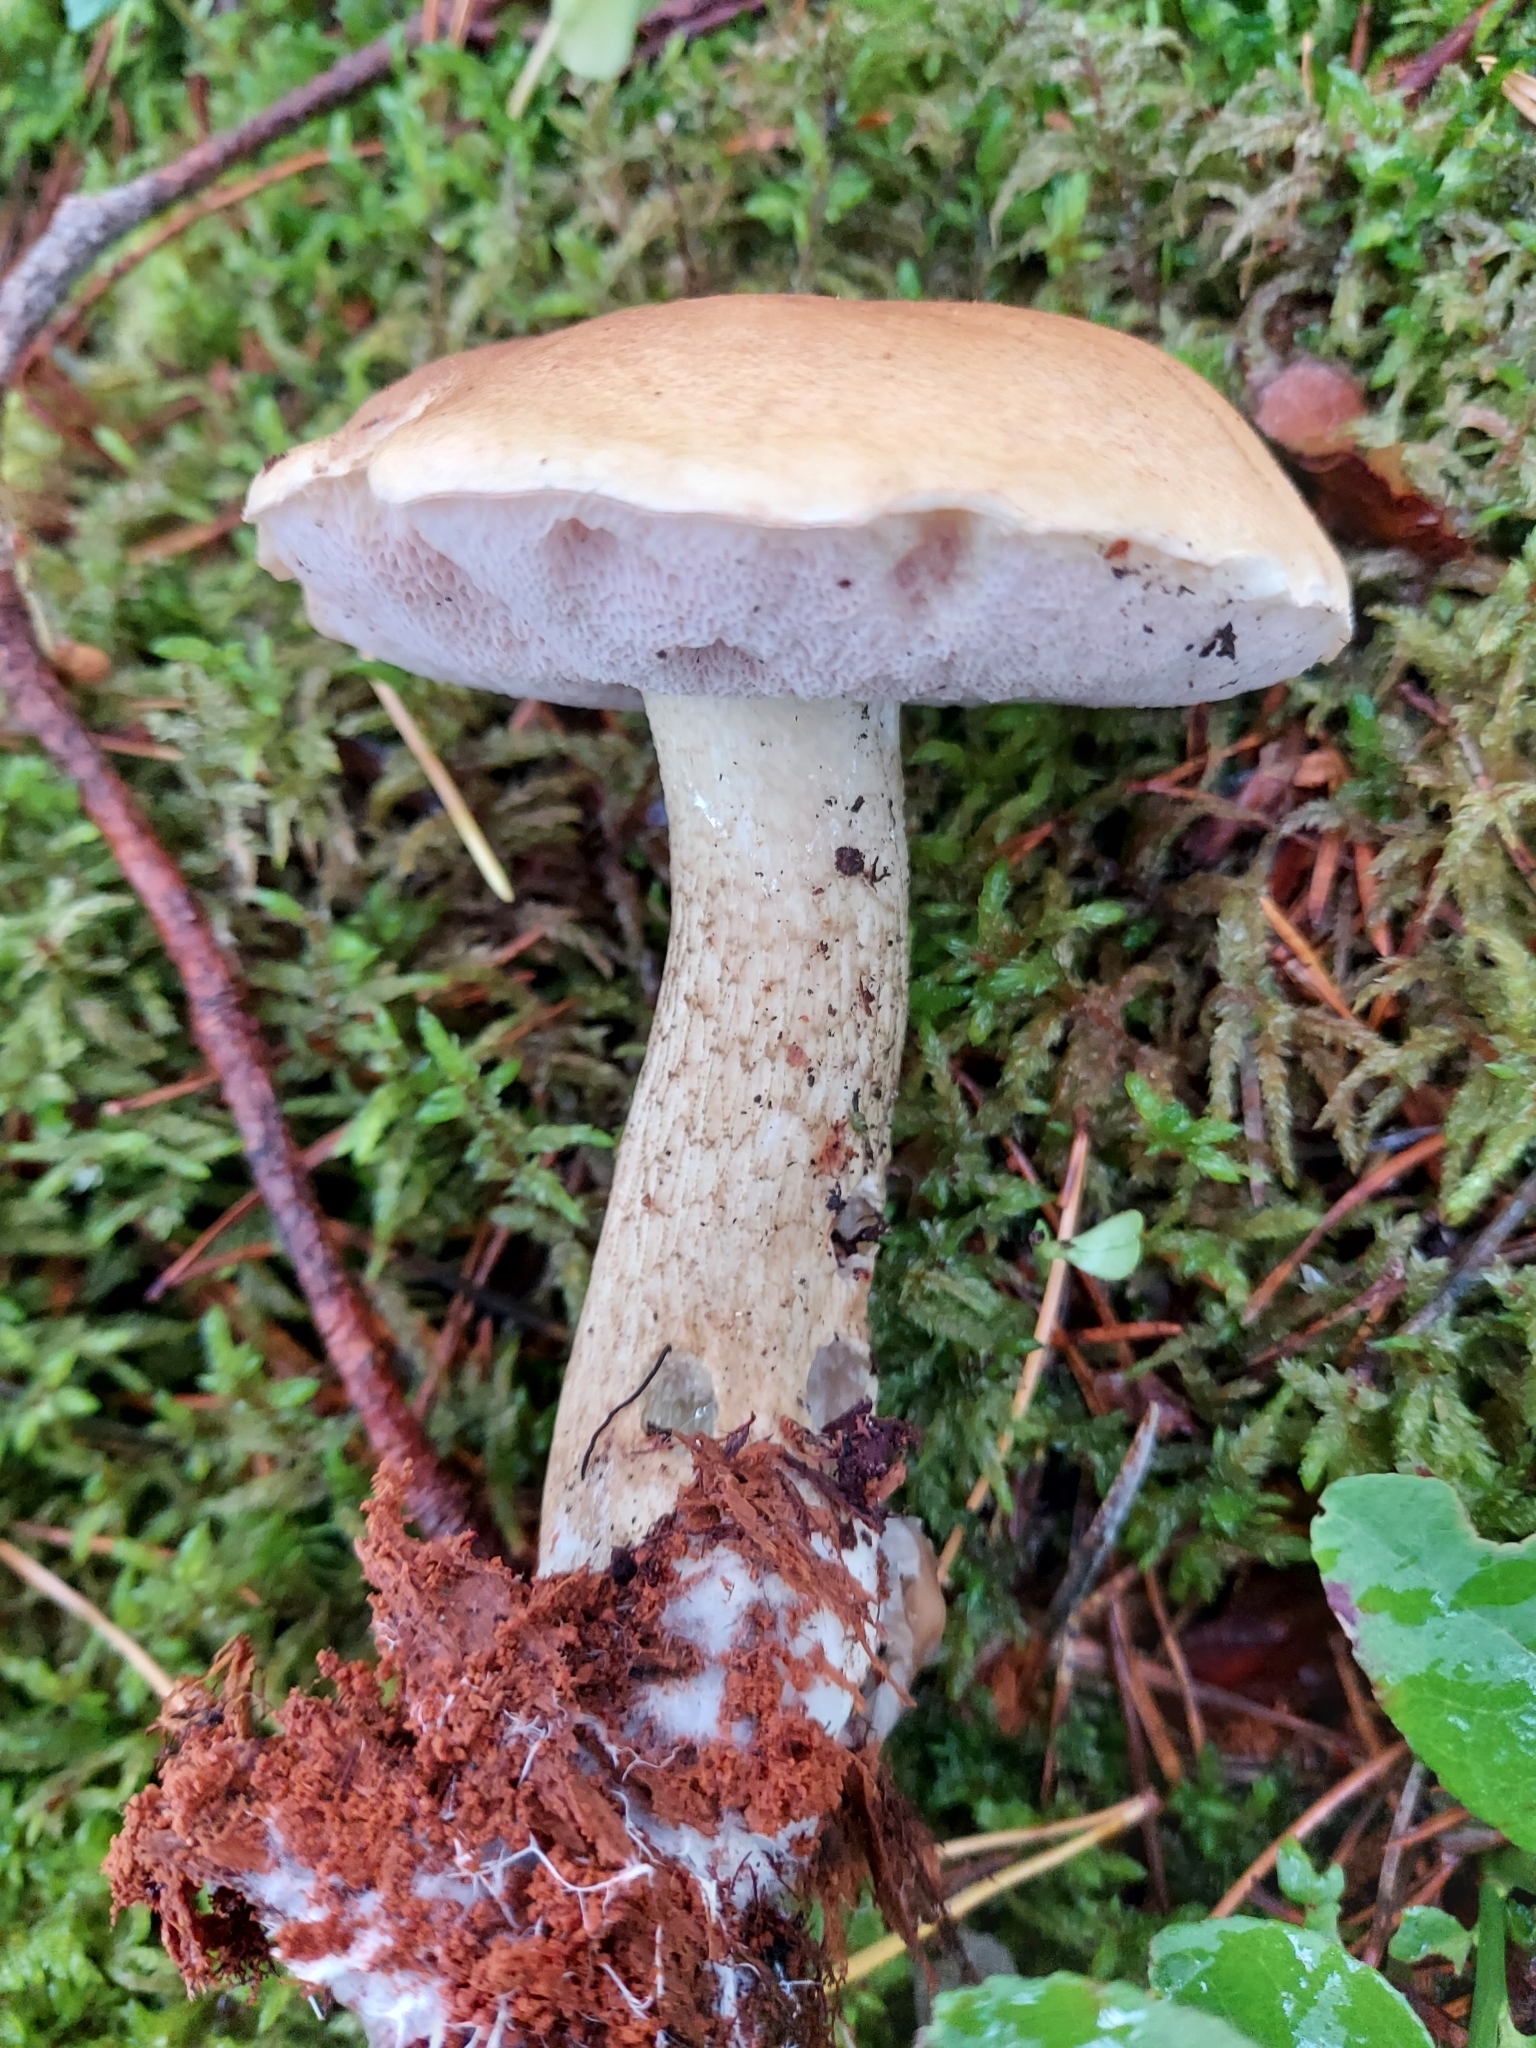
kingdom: Fungi
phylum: Basidiomycota
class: Agaricomycetes
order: Boletales
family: Boletaceae
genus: Tylopilus
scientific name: Tylopilus felleus
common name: Bitter bolete
